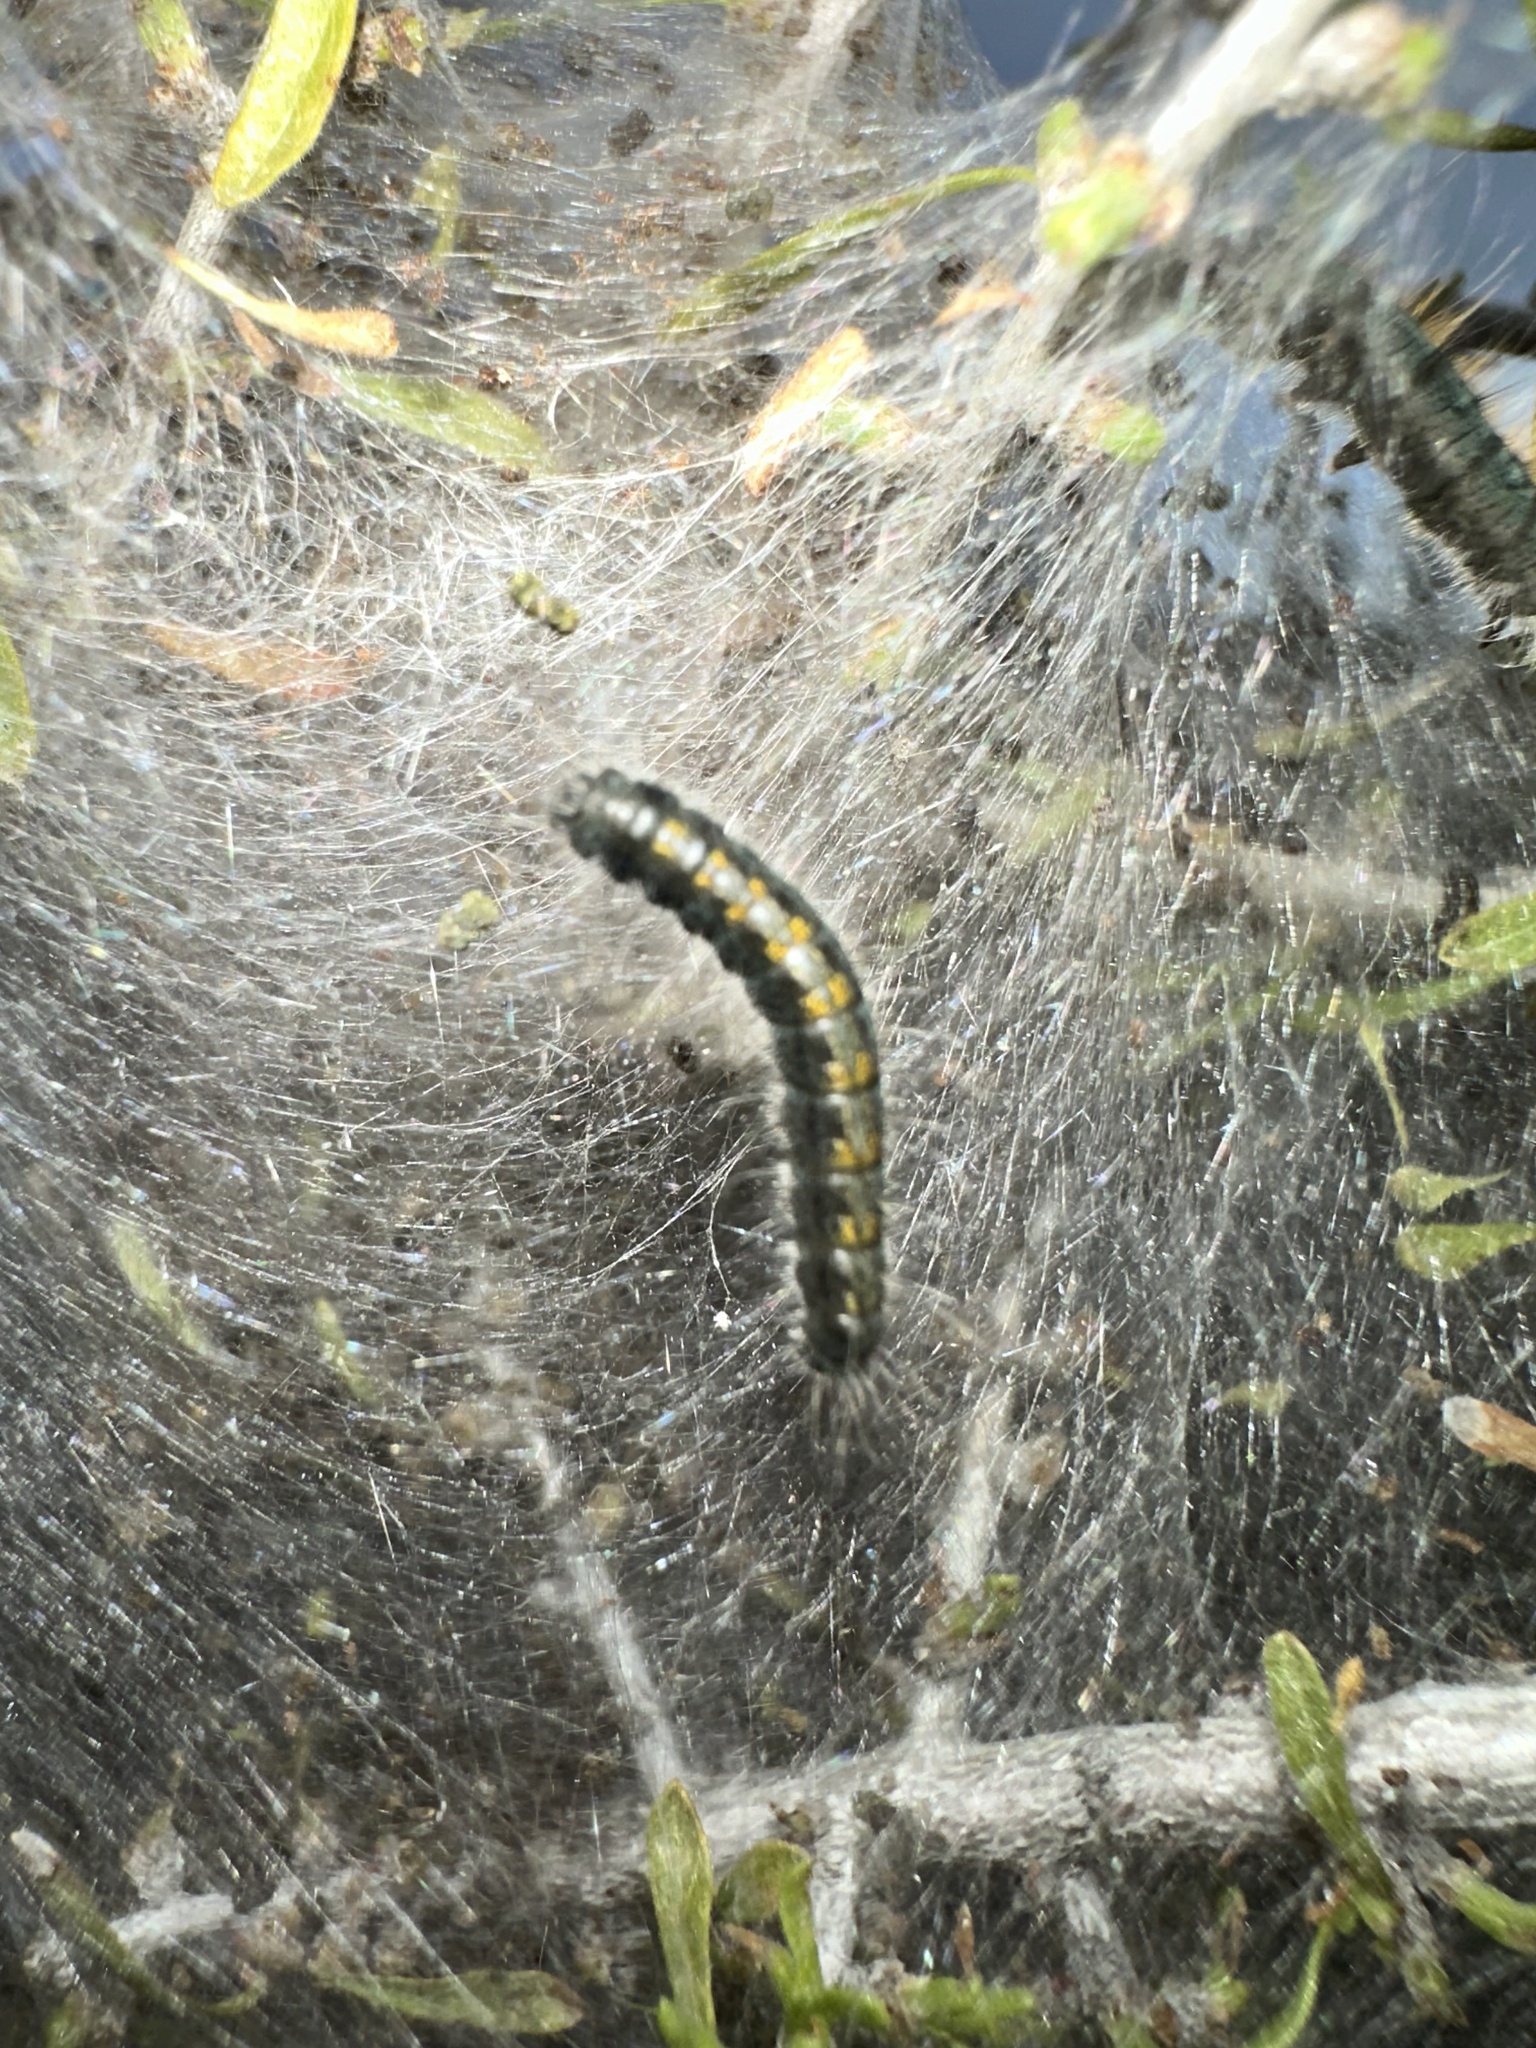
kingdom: Animalia
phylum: Arthropoda
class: Insecta
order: Lepidoptera
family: Lasiocampidae
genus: Malacosoma
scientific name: Malacosoma californica
